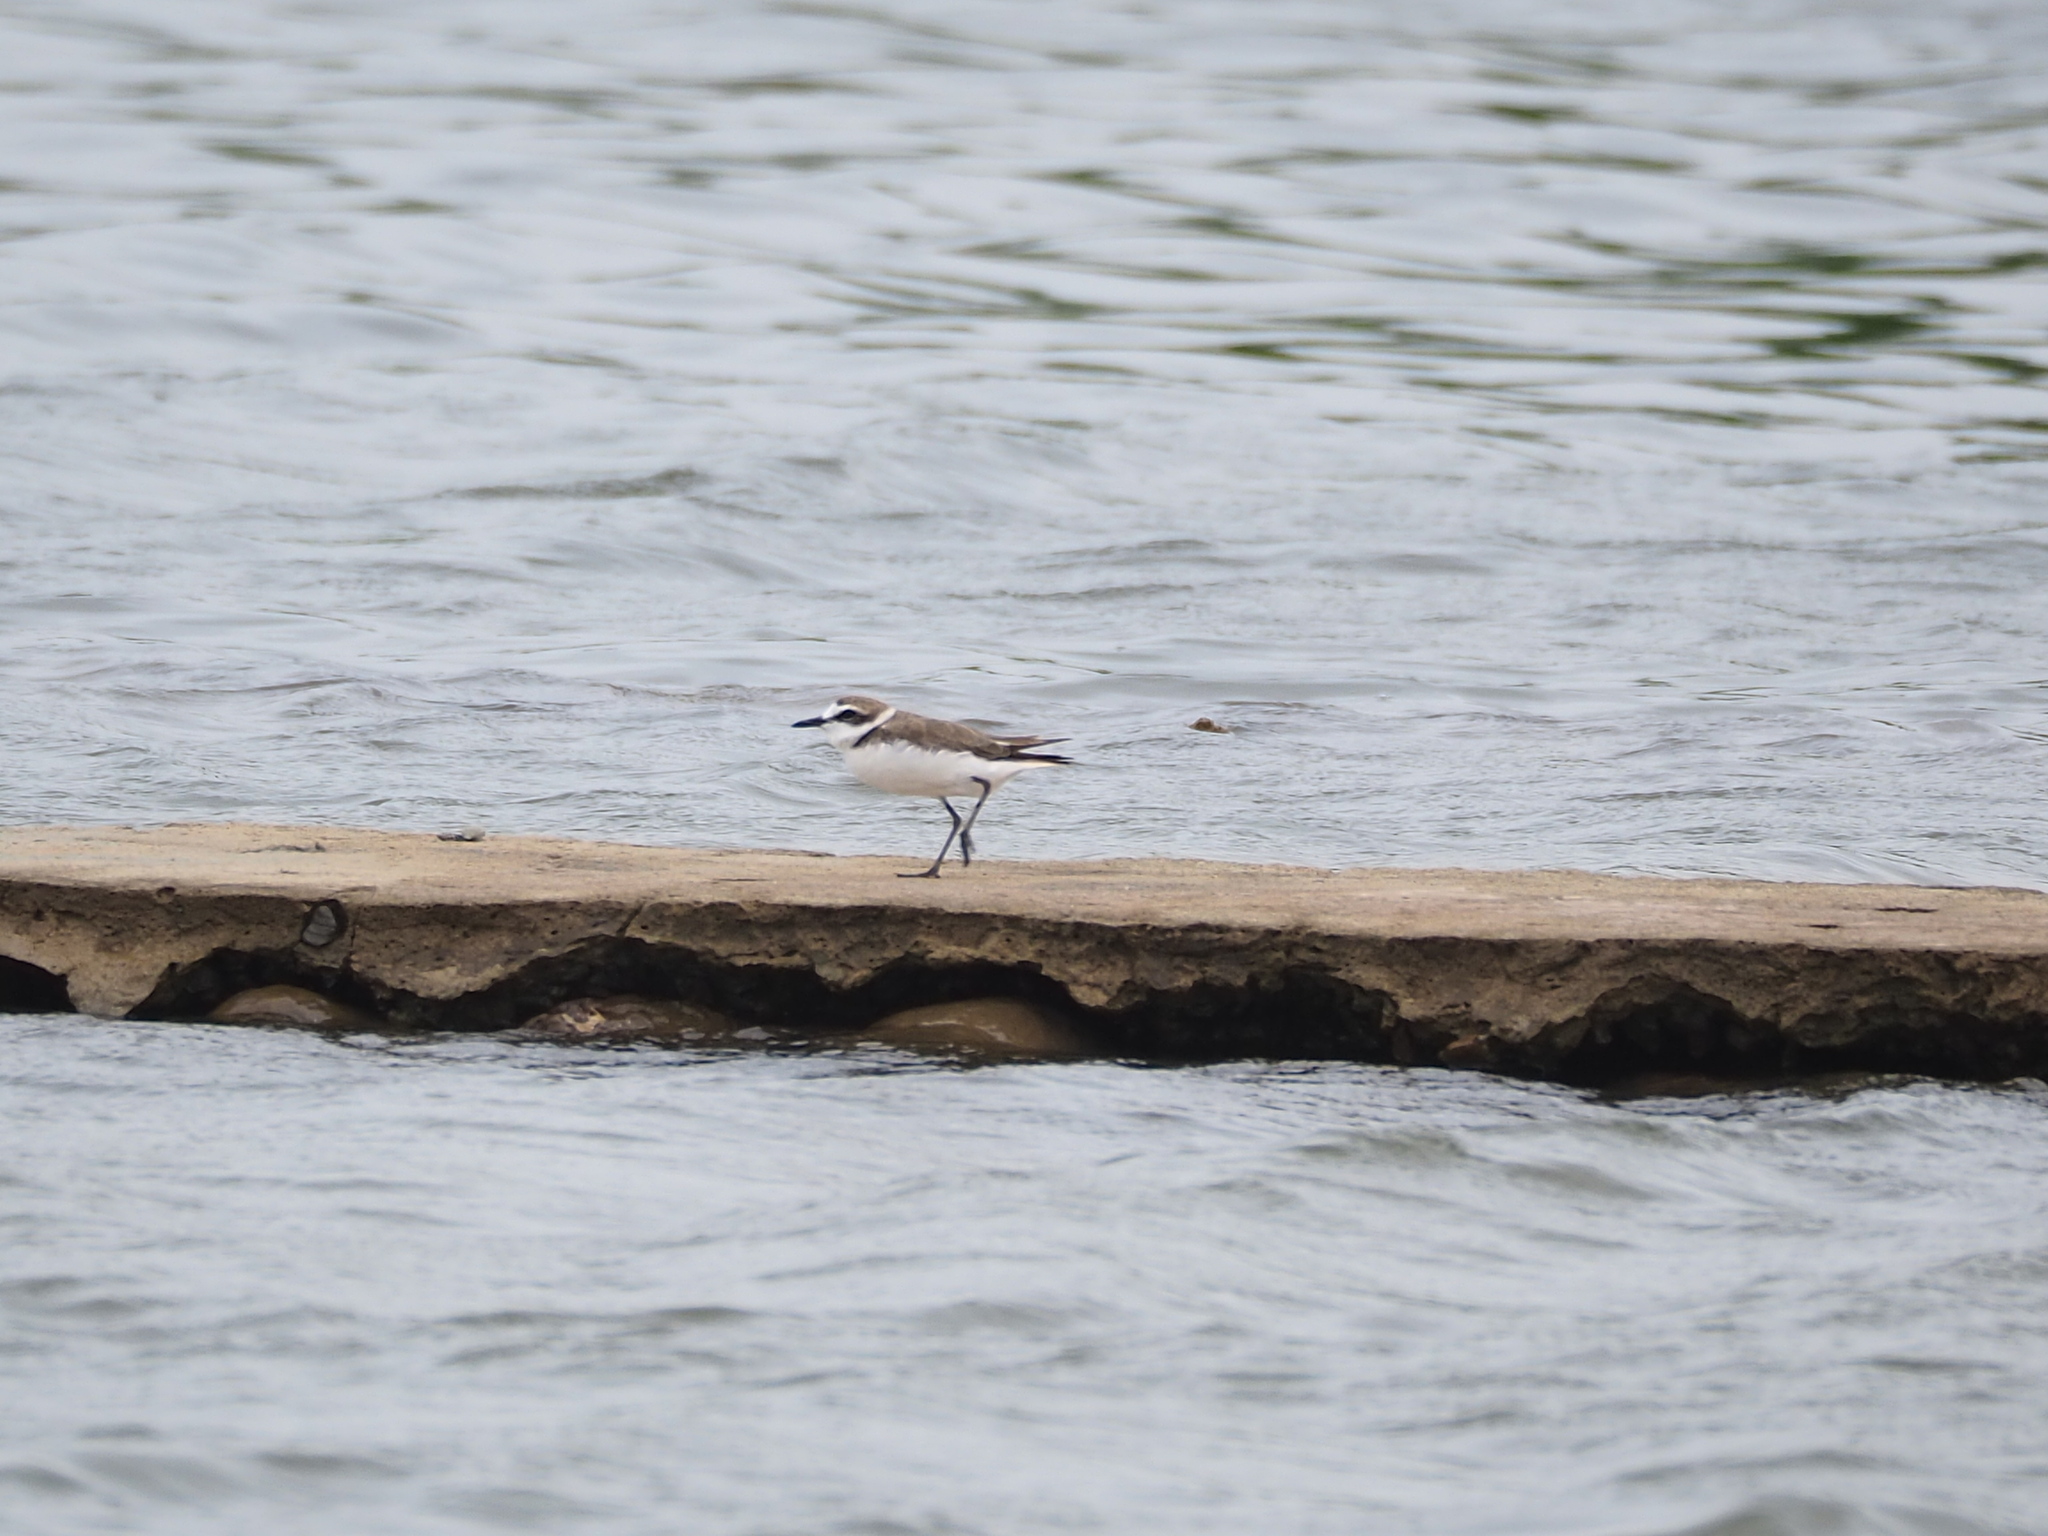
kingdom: Animalia
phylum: Chordata
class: Aves
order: Charadriiformes
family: Charadriidae
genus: Charadrius
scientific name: Charadrius alexandrinus
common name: Kentish plover
